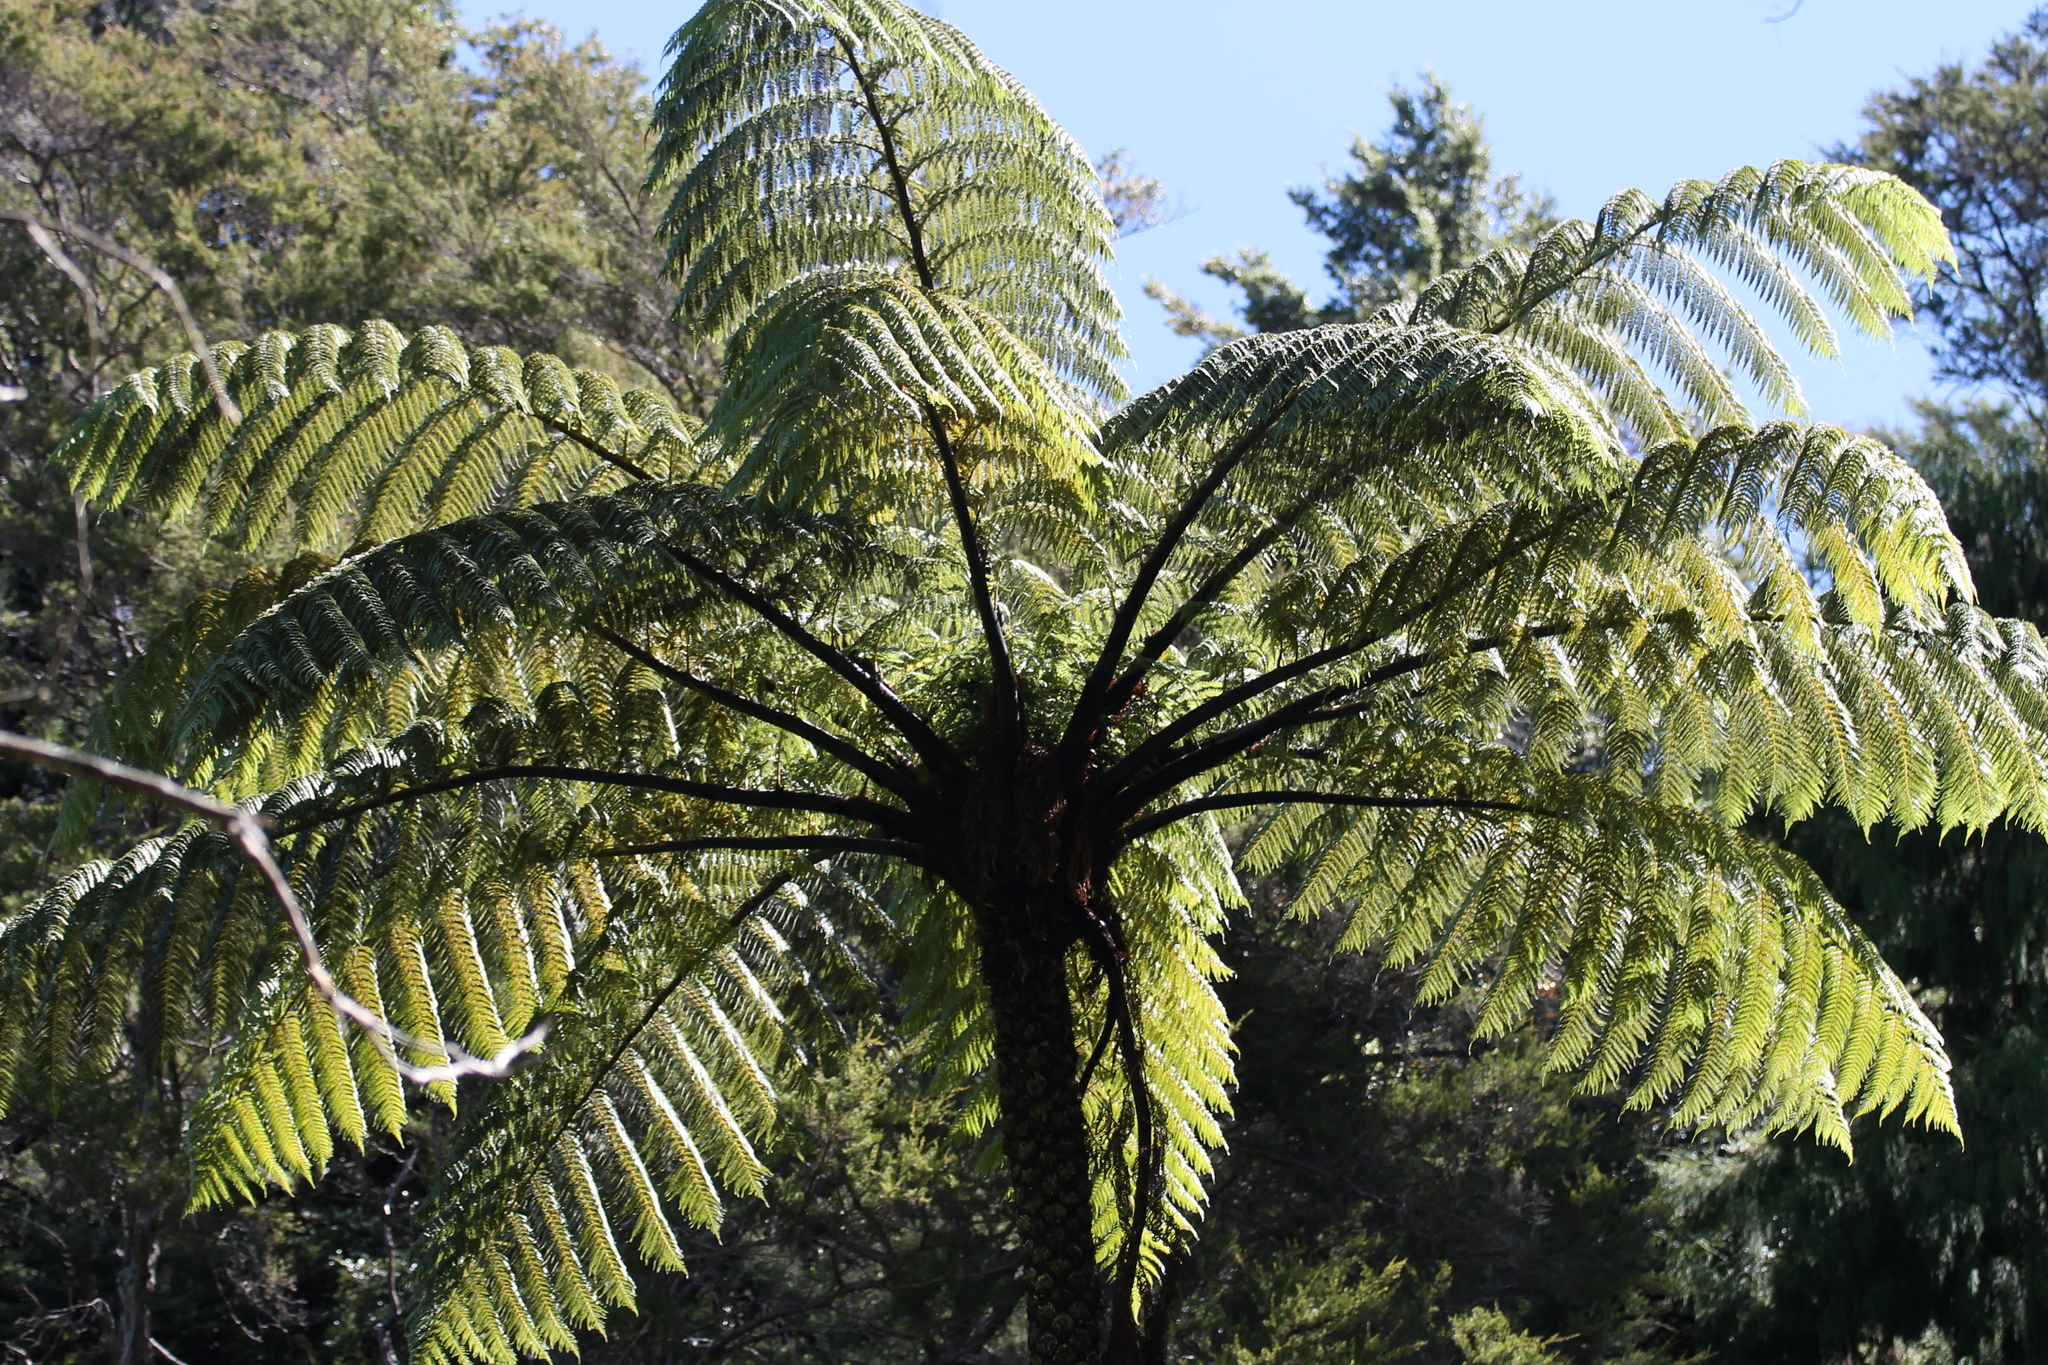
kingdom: Plantae
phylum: Tracheophyta
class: Polypodiopsida
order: Cyatheales
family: Cyatheaceae
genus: Sphaeropteris
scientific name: Sphaeropteris medullaris
